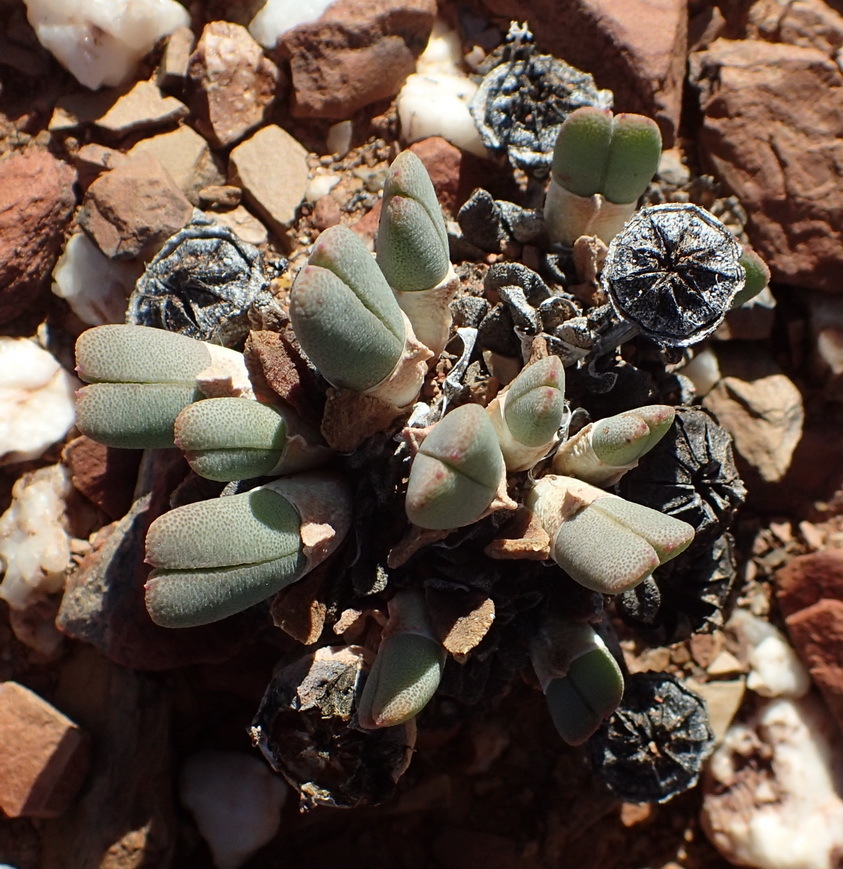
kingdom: Plantae
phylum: Tracheophyta
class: Magnoliopsida
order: Caryophyllales
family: Aizoaceae
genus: Cheiridopsis
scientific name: Cheiridopsis namaquensis
